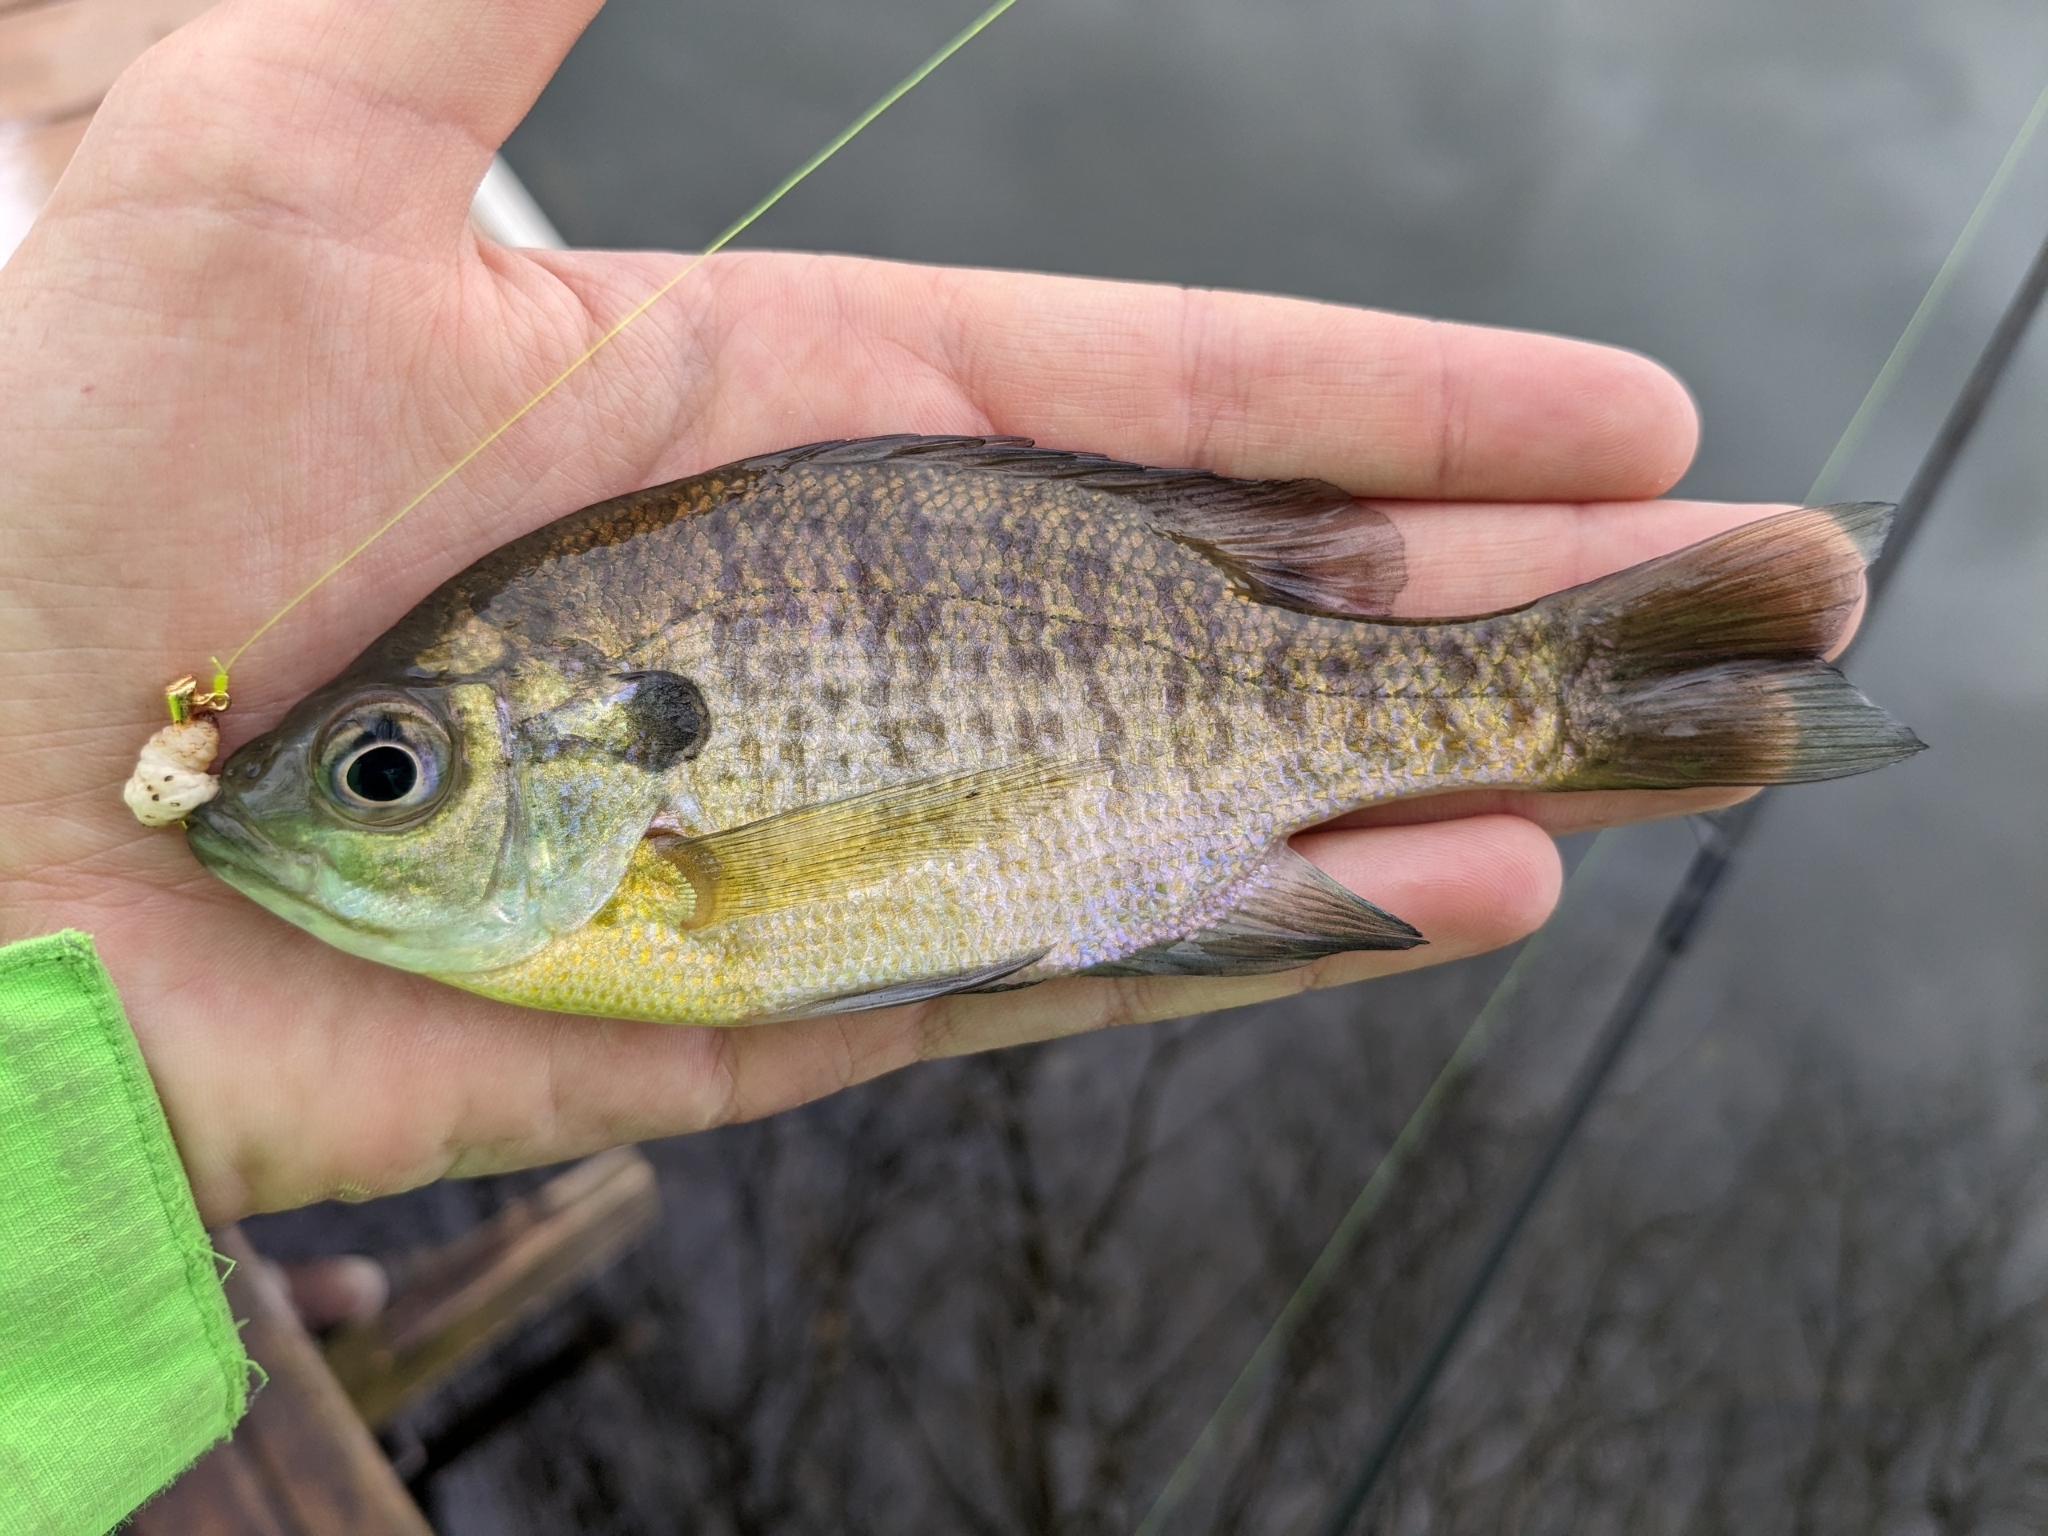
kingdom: Animalia
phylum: Chordata
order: Perciformes
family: Centrarchidae
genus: Lepomis
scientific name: Lepomis macrochirus
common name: Bluegill
